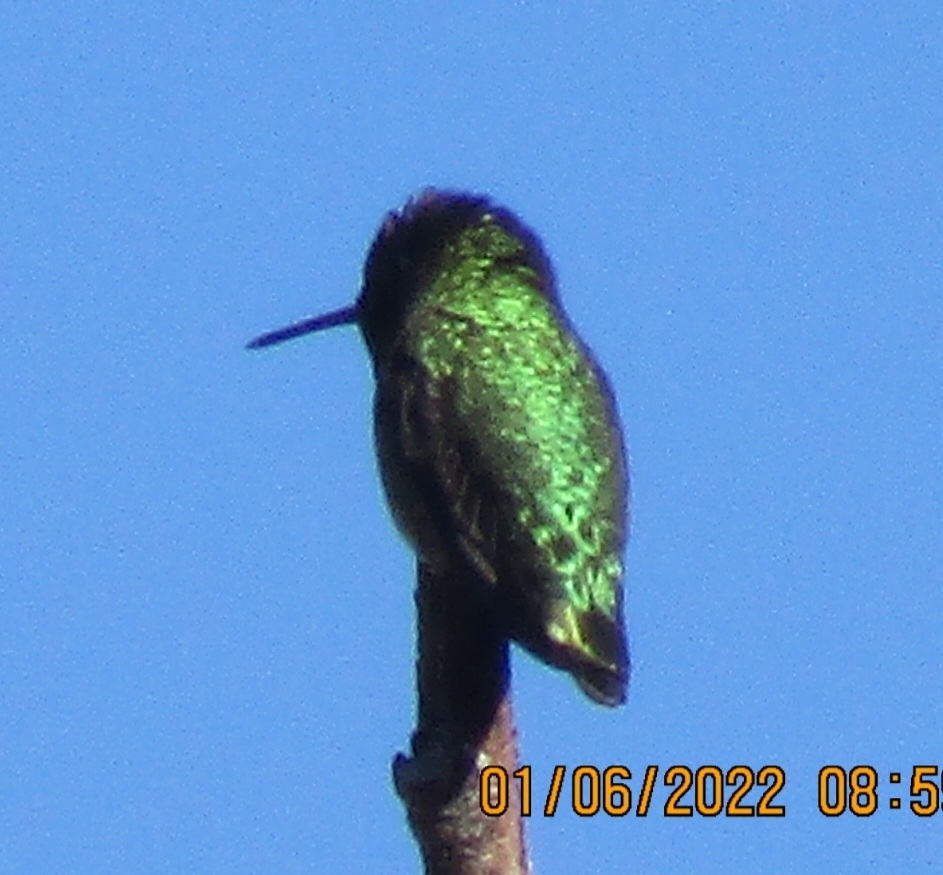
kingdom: Animalia
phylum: Chordata
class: Aves
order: Apodiformes
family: Trochilidae
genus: Calypte
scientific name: Calypte anna
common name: Anna's hummingbird
